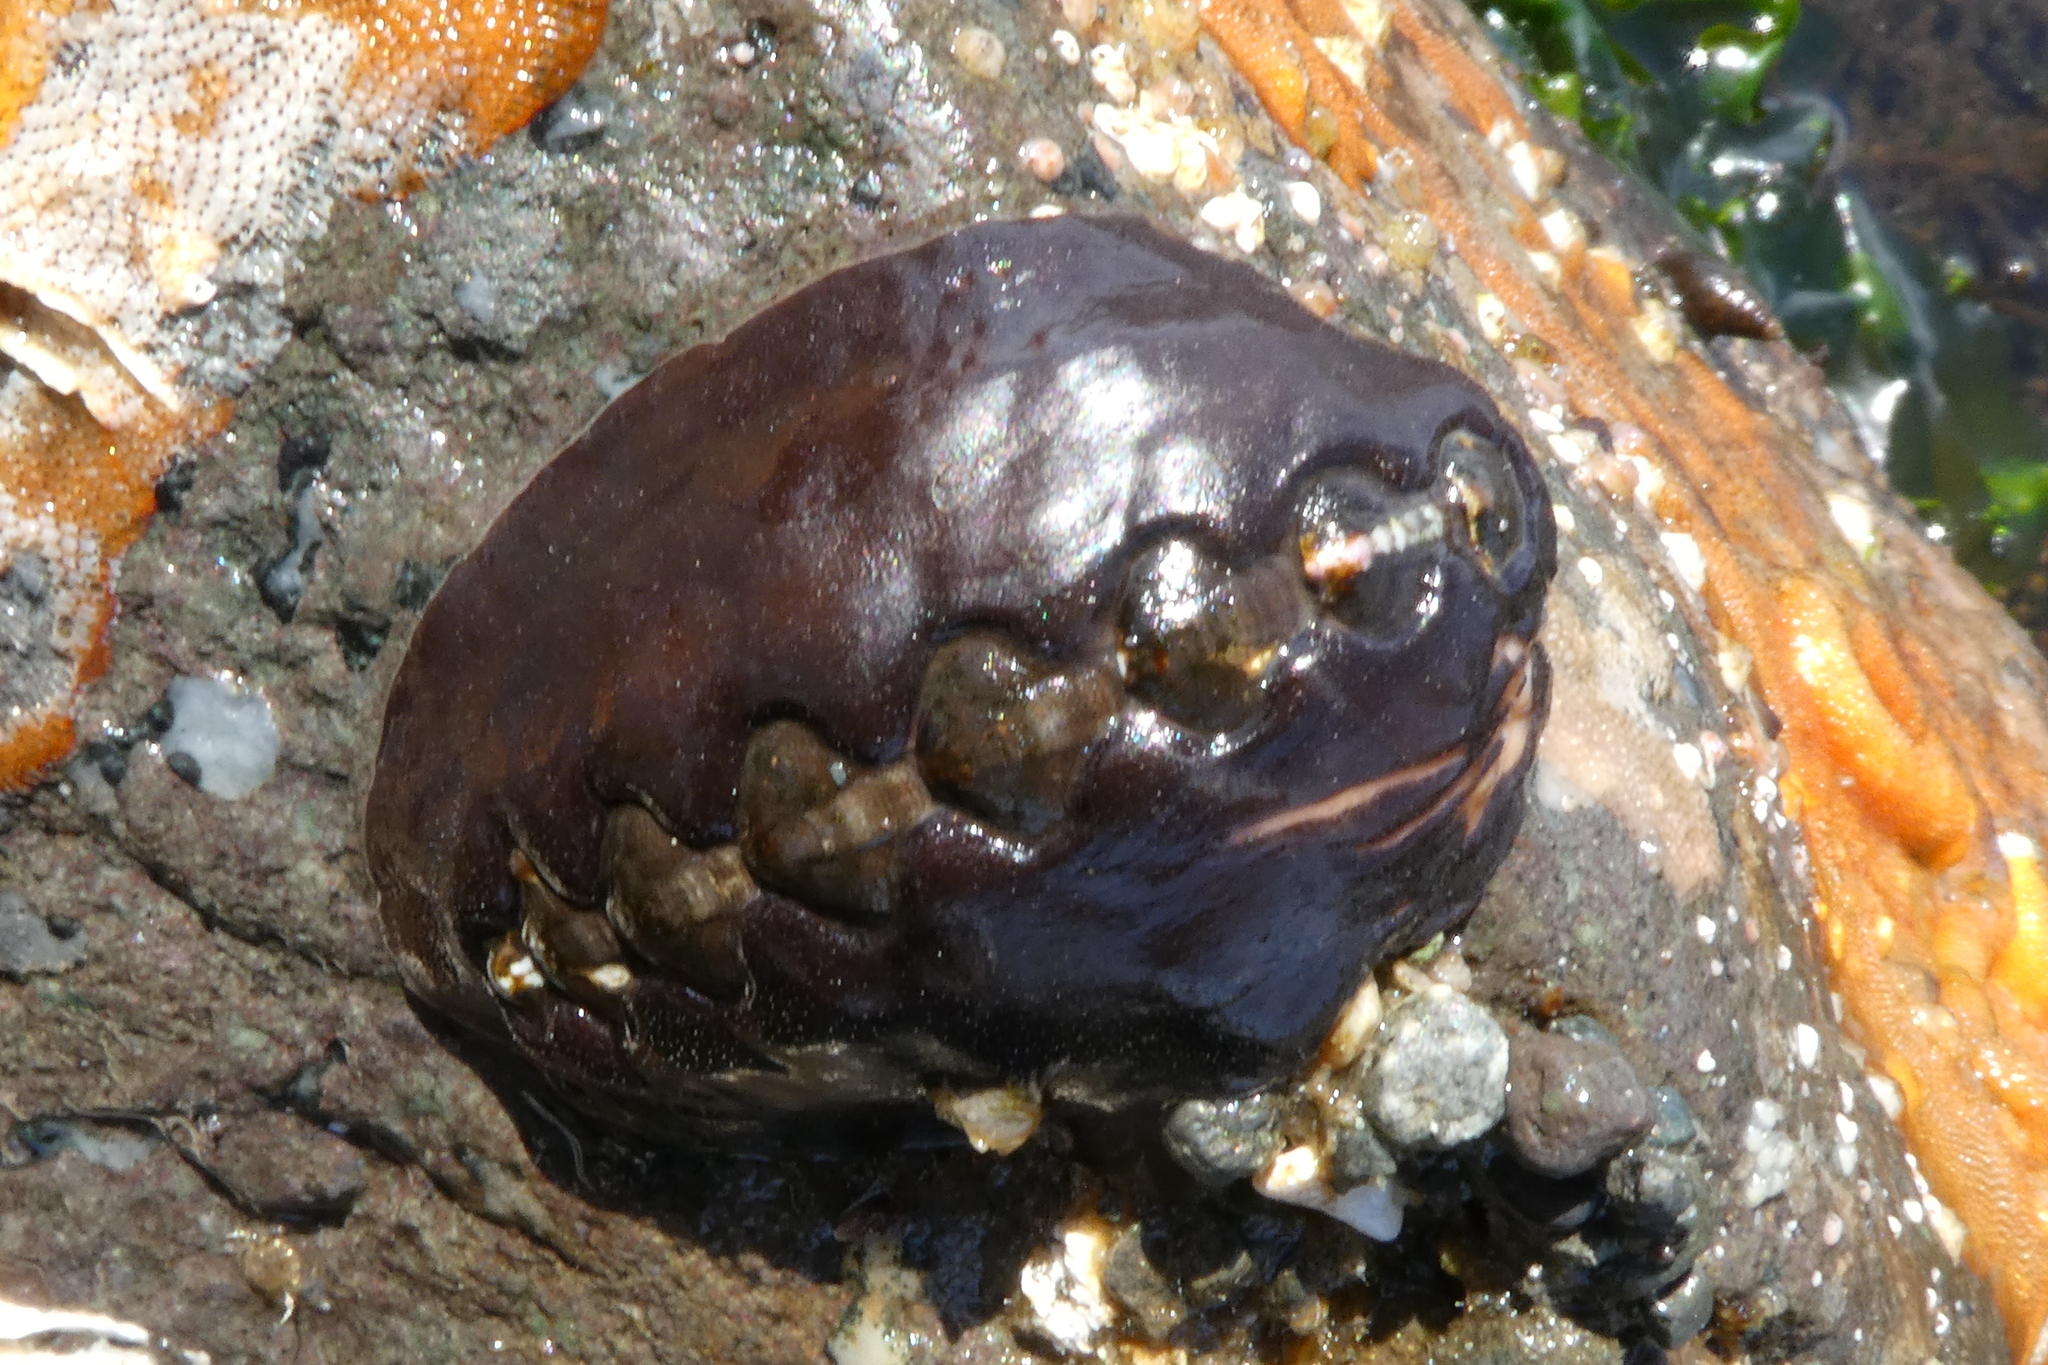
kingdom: Animalia
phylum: Mollusca
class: Polyplacophora
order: Chitonida
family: Mopaliidae
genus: Katharina
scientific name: Katharina tunicata
